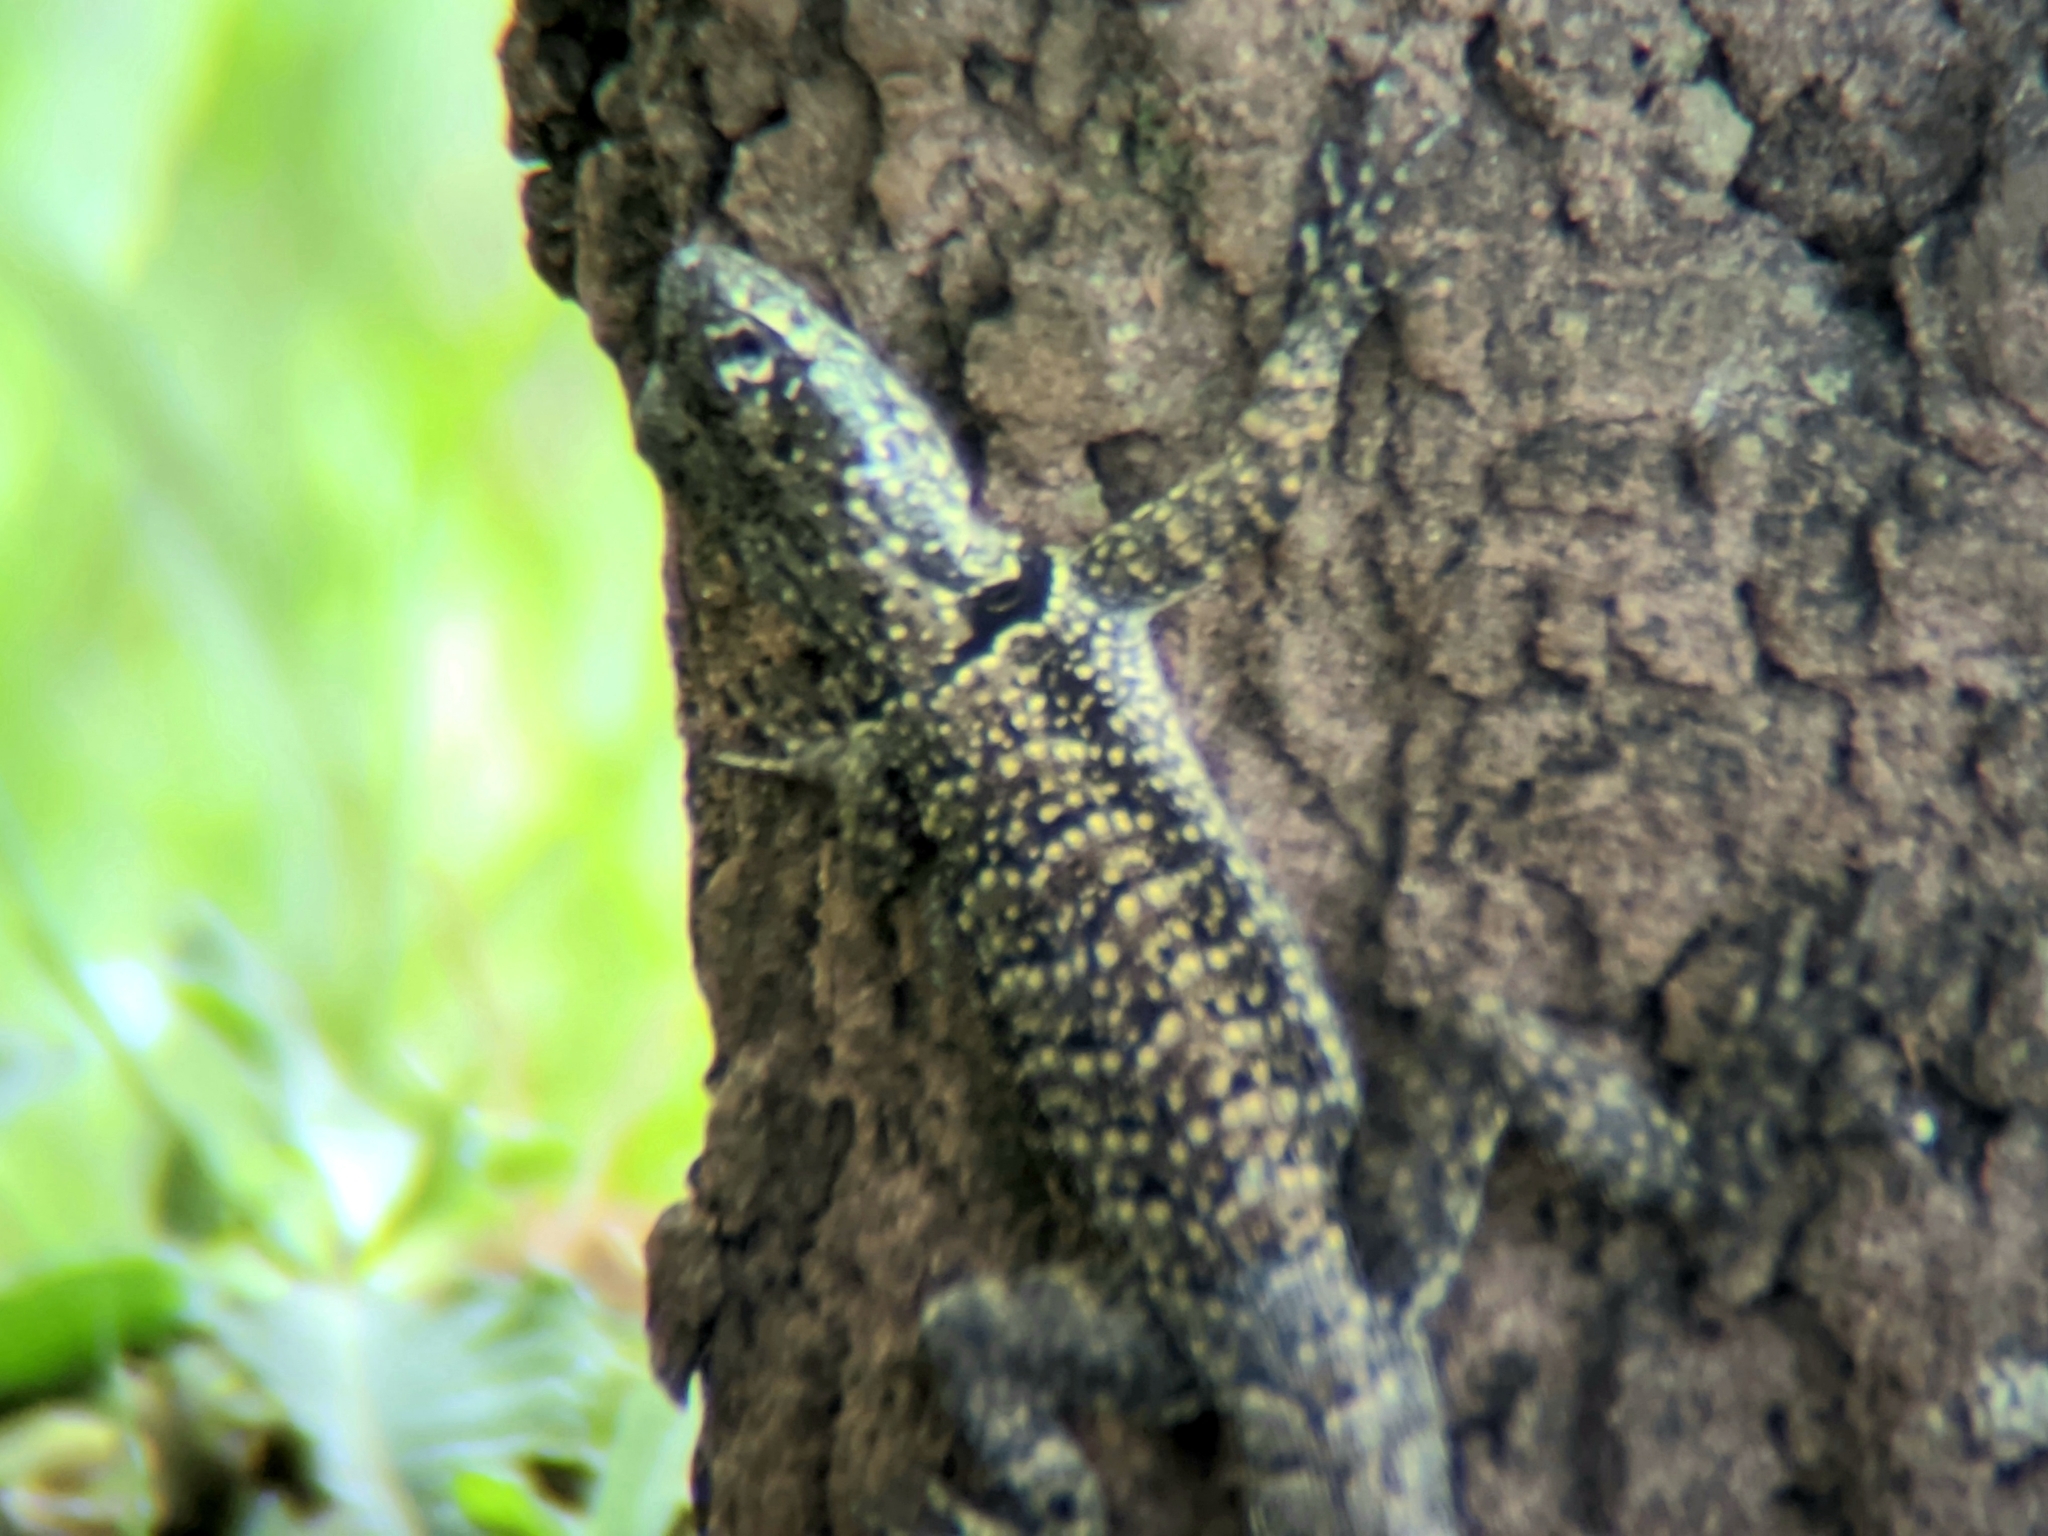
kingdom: Animalia
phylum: Chordata
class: Squamata
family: Tropiduridae
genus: Tropidurus
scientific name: Tropidurus torquatus
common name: Amazon lava lizard
